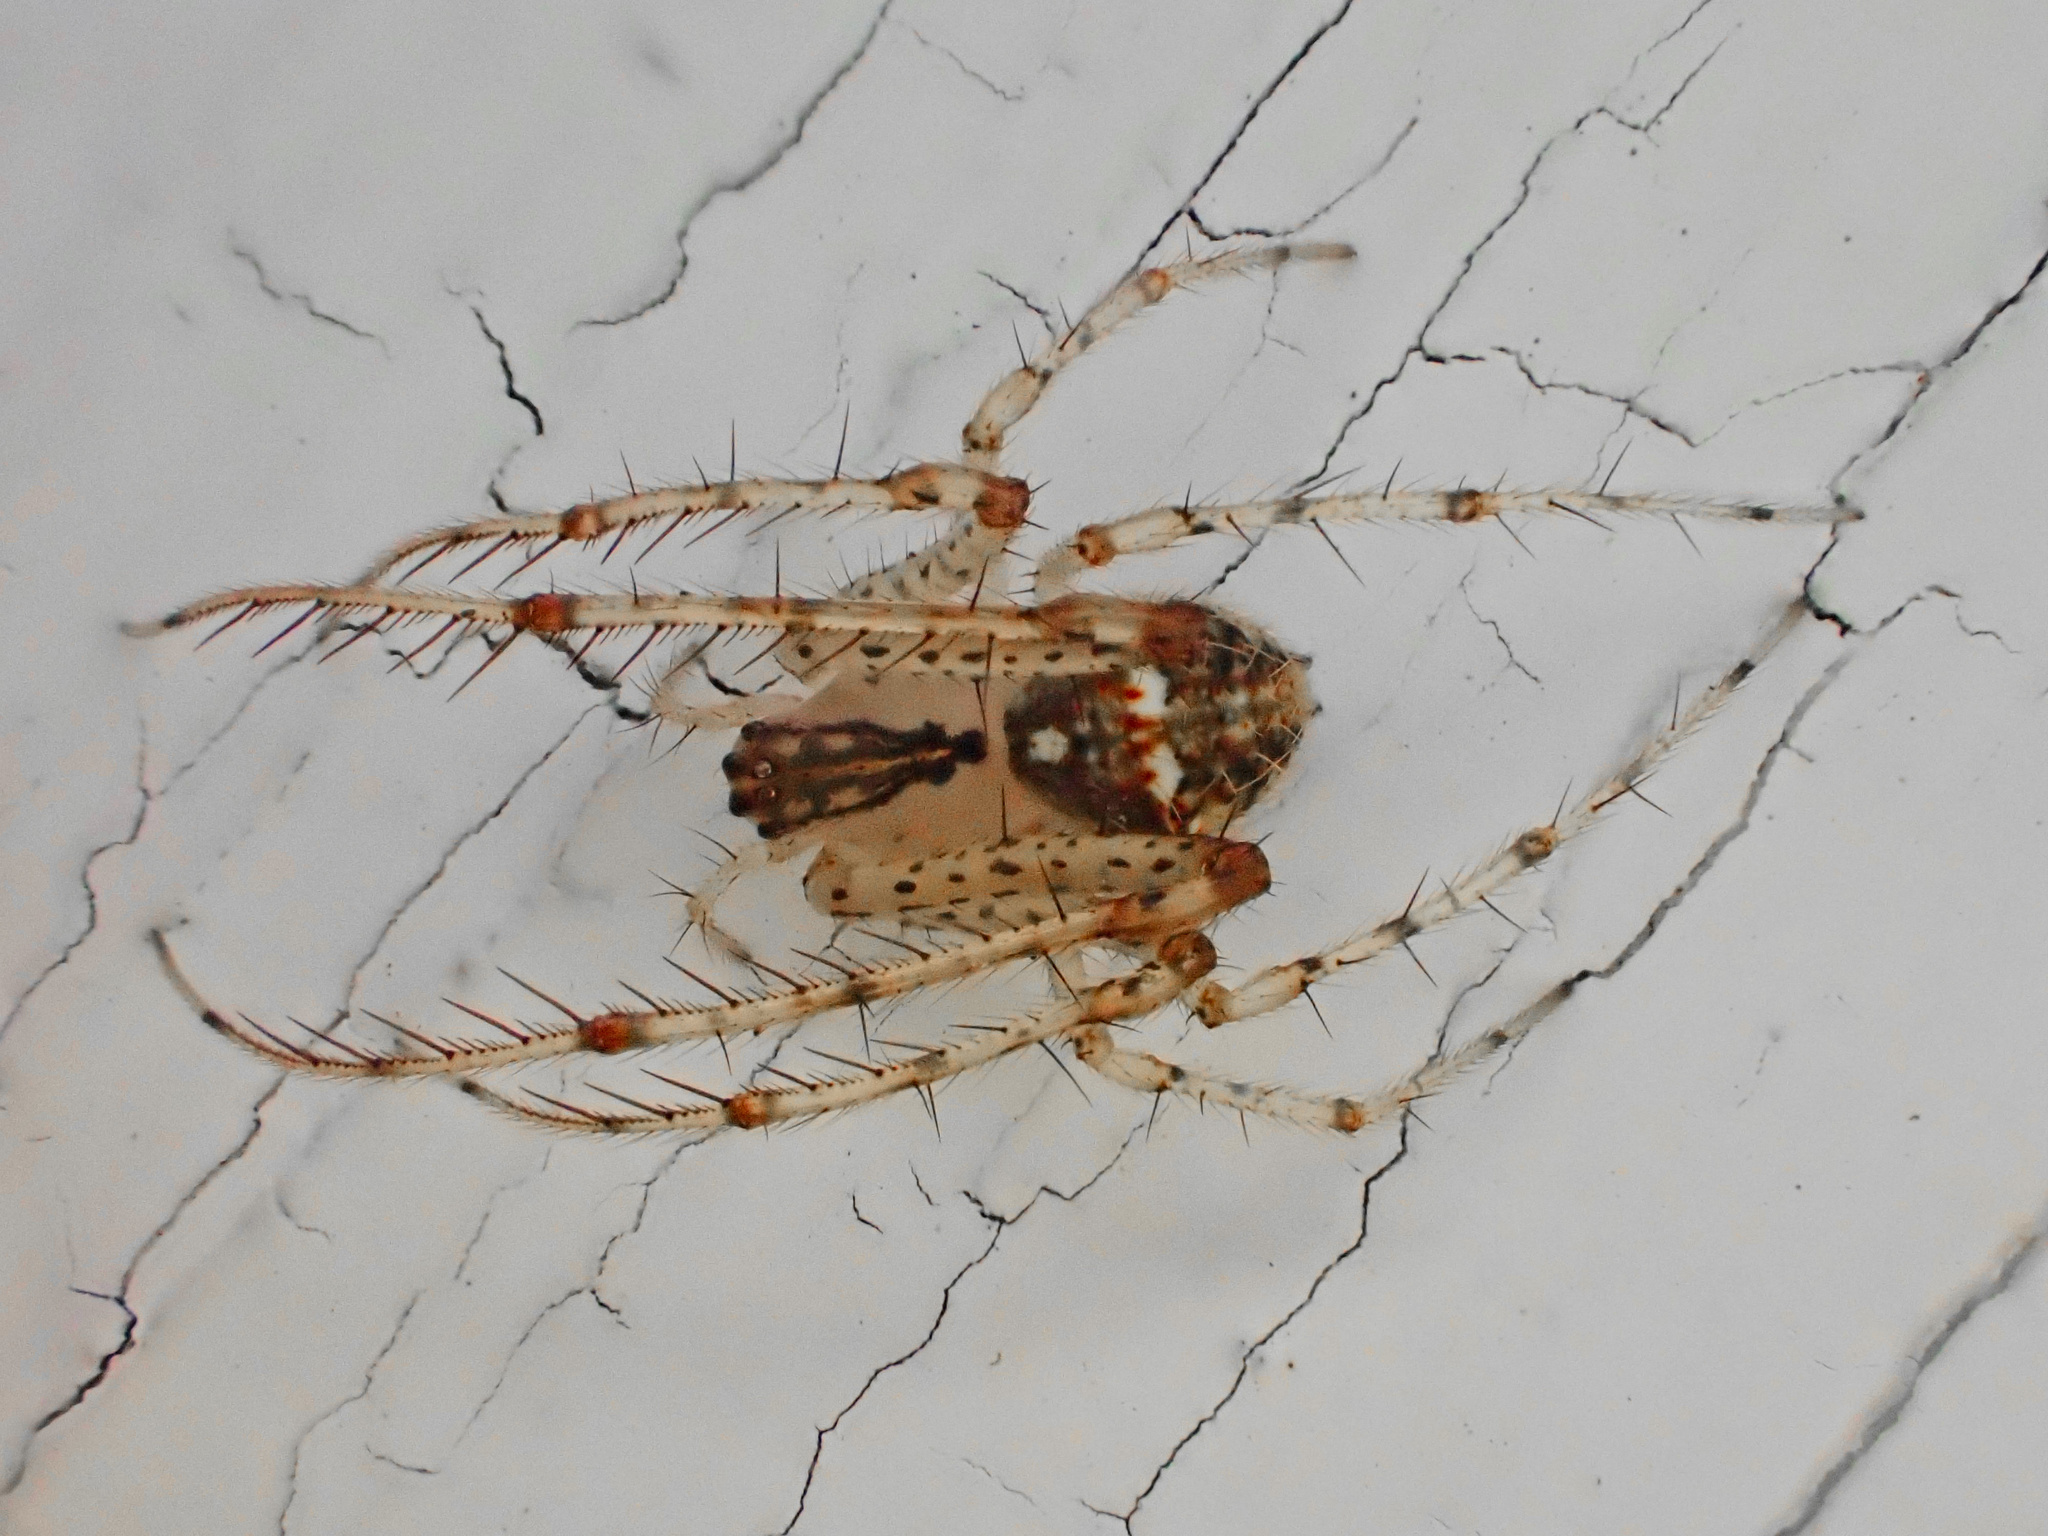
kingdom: Animalia
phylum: Arthropoda
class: Arachnida
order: Araneae
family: Mimetidae
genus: Mimetus
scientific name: Mimetus puritanus
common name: Common pirate spider
